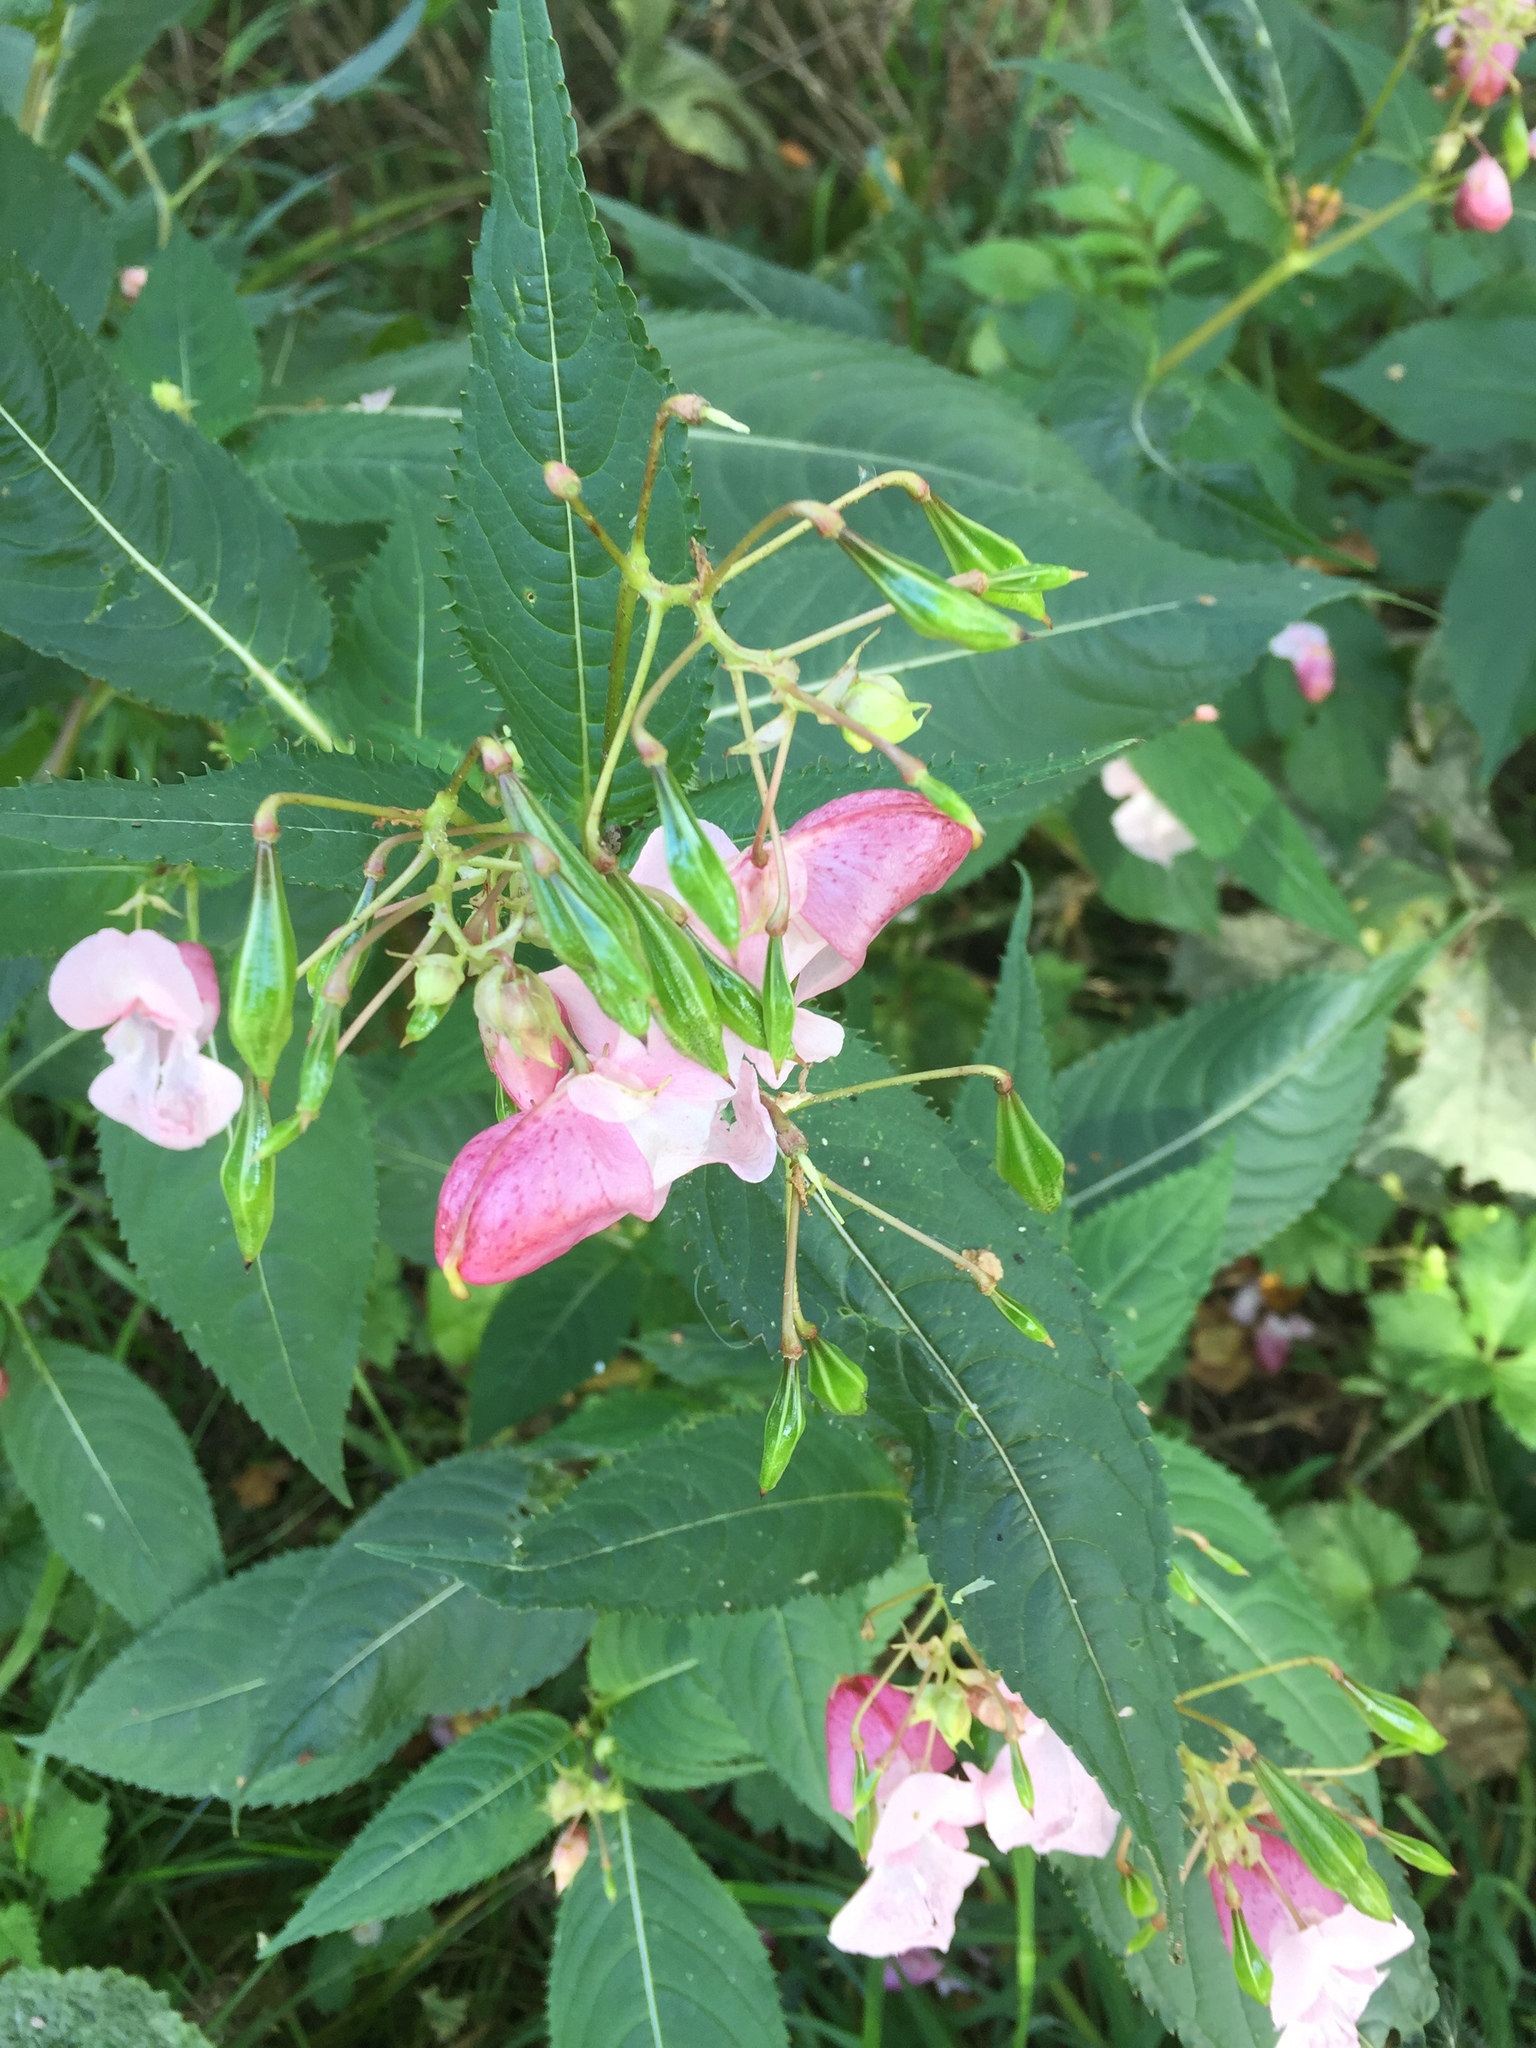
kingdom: Plantae
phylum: Tracheophyta
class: Magnoliopsida
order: Ericales
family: Balsaminaceae
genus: Impatiens
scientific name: Impatiens glandulifera
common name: Himalayan balsam
